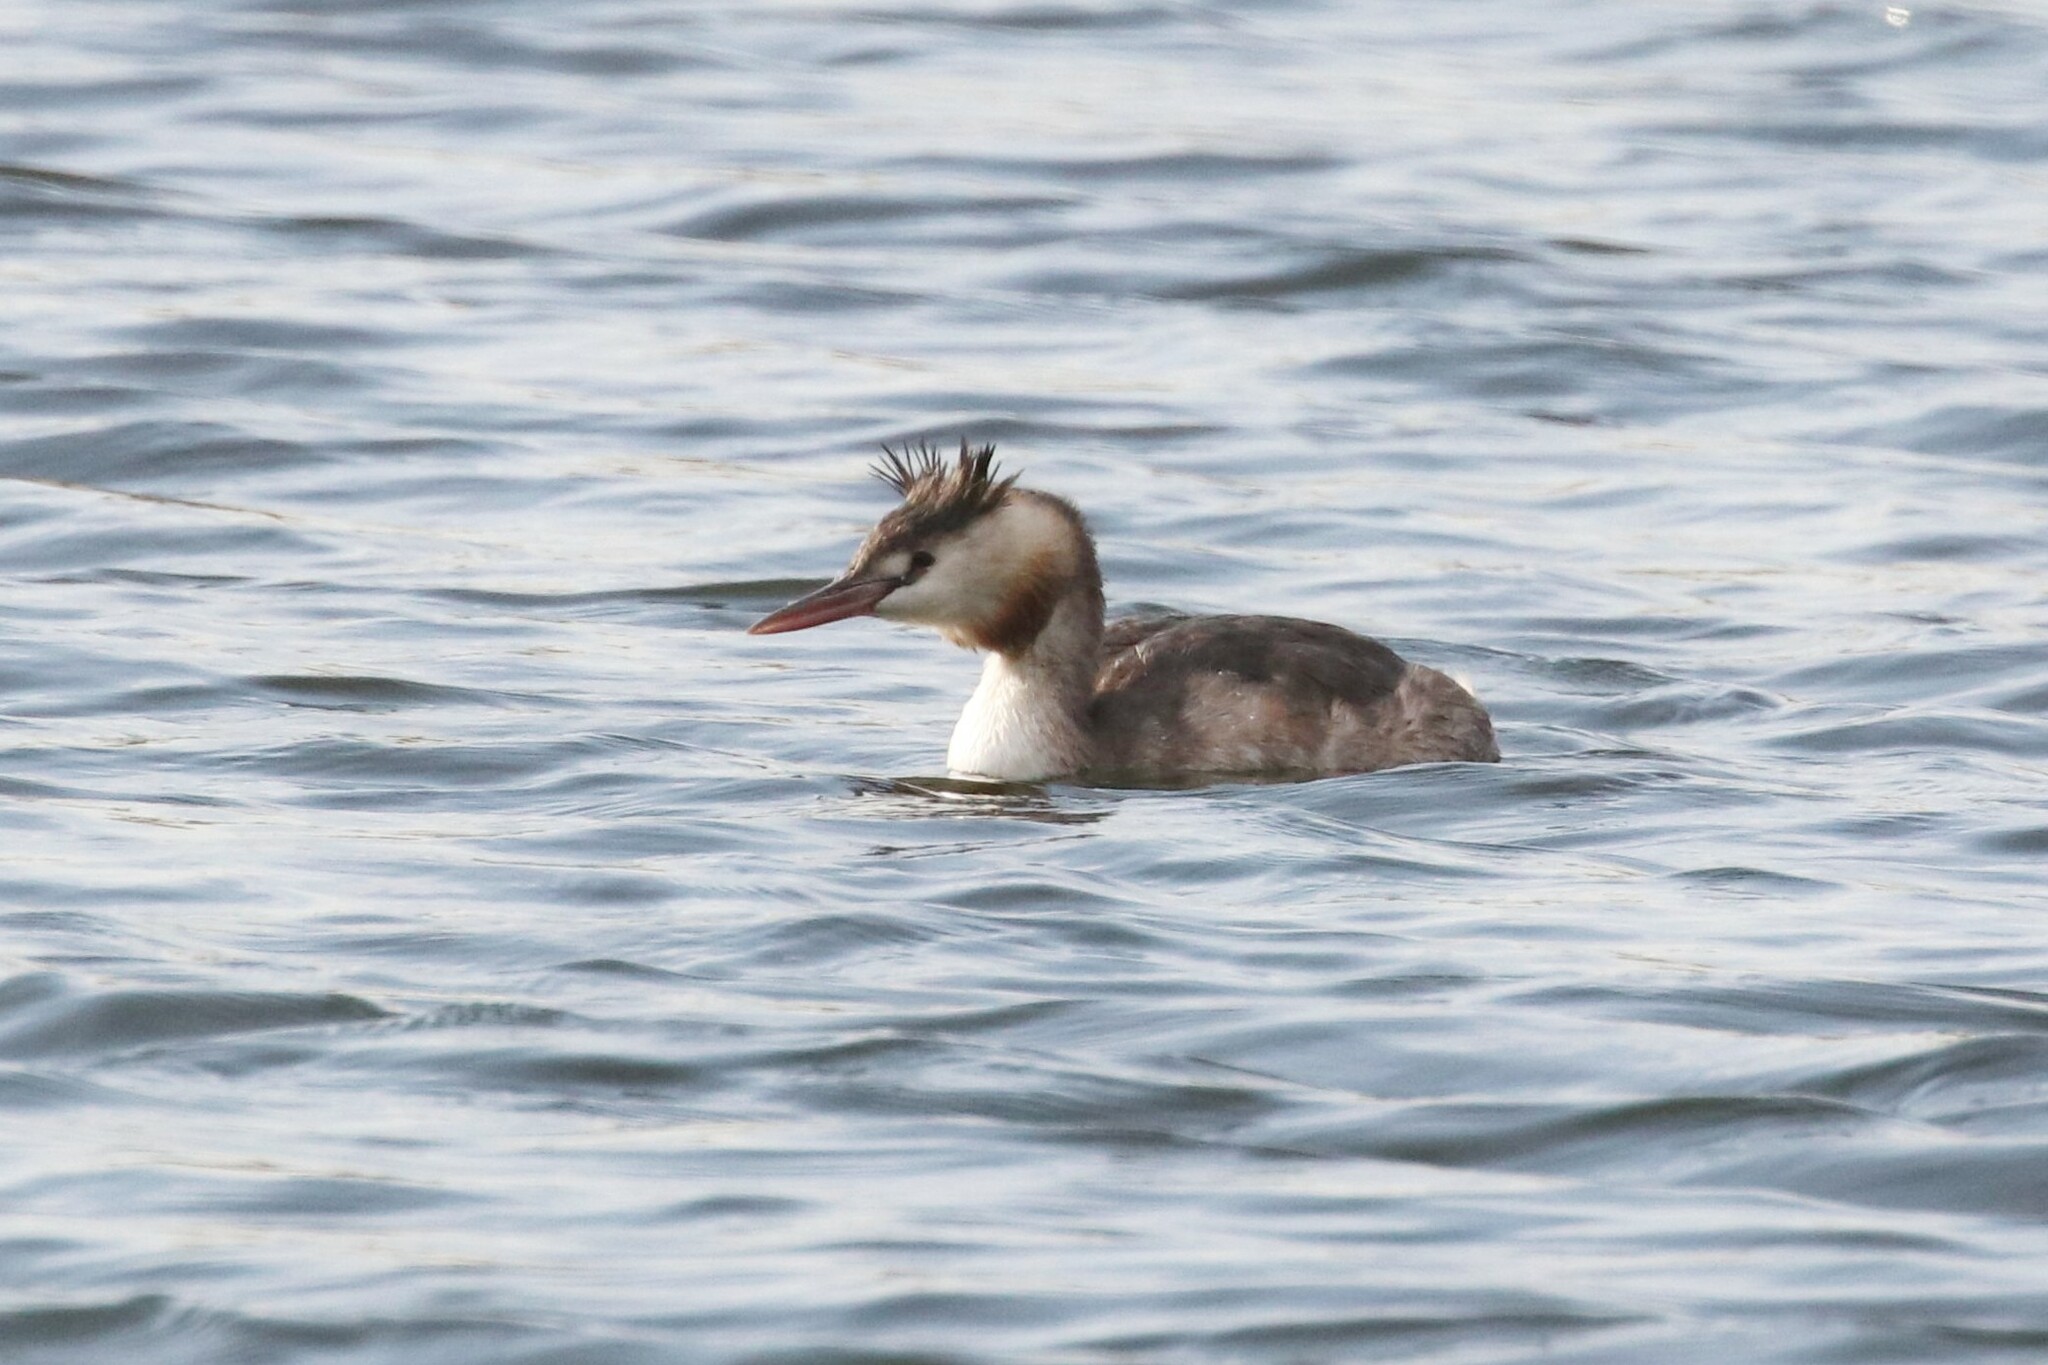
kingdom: Animalia
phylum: Chordata
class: Aves
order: Podicipediformes
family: Podicipedidae
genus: Podiceps
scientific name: Podiceps cristatus
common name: Great crested grebe
